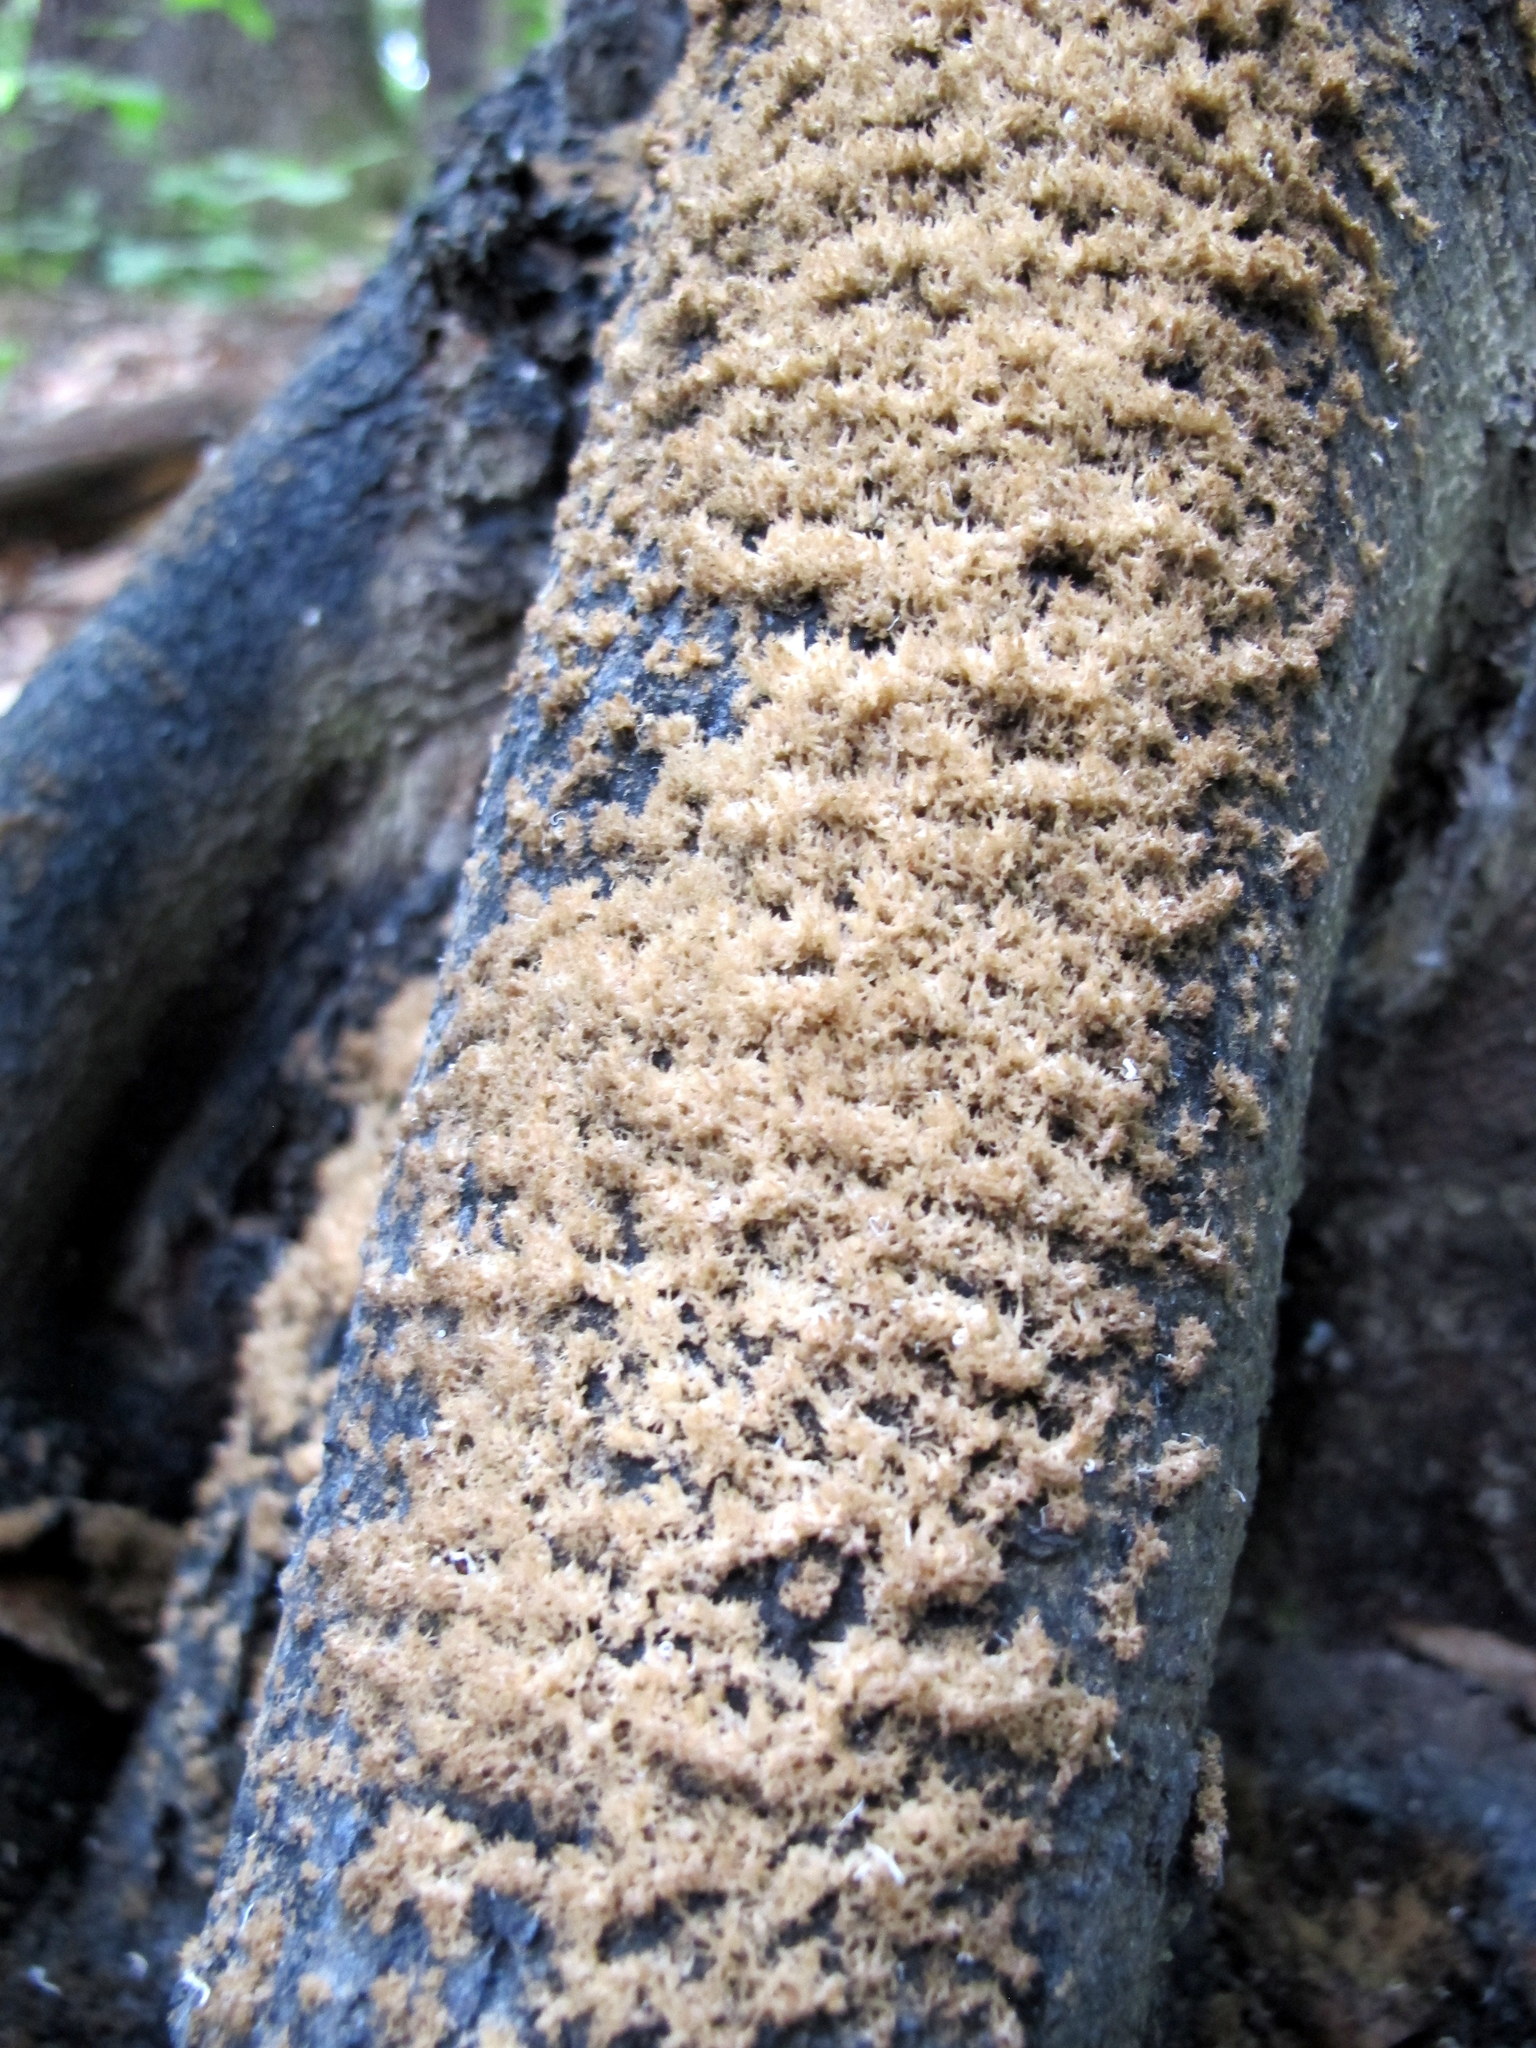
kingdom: Fungi
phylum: Ascomycota
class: Dothideomycetes
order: Capnodiales
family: Capnodiaceae
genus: Scorias
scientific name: Scorias spongiosa
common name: Black sooty mold
